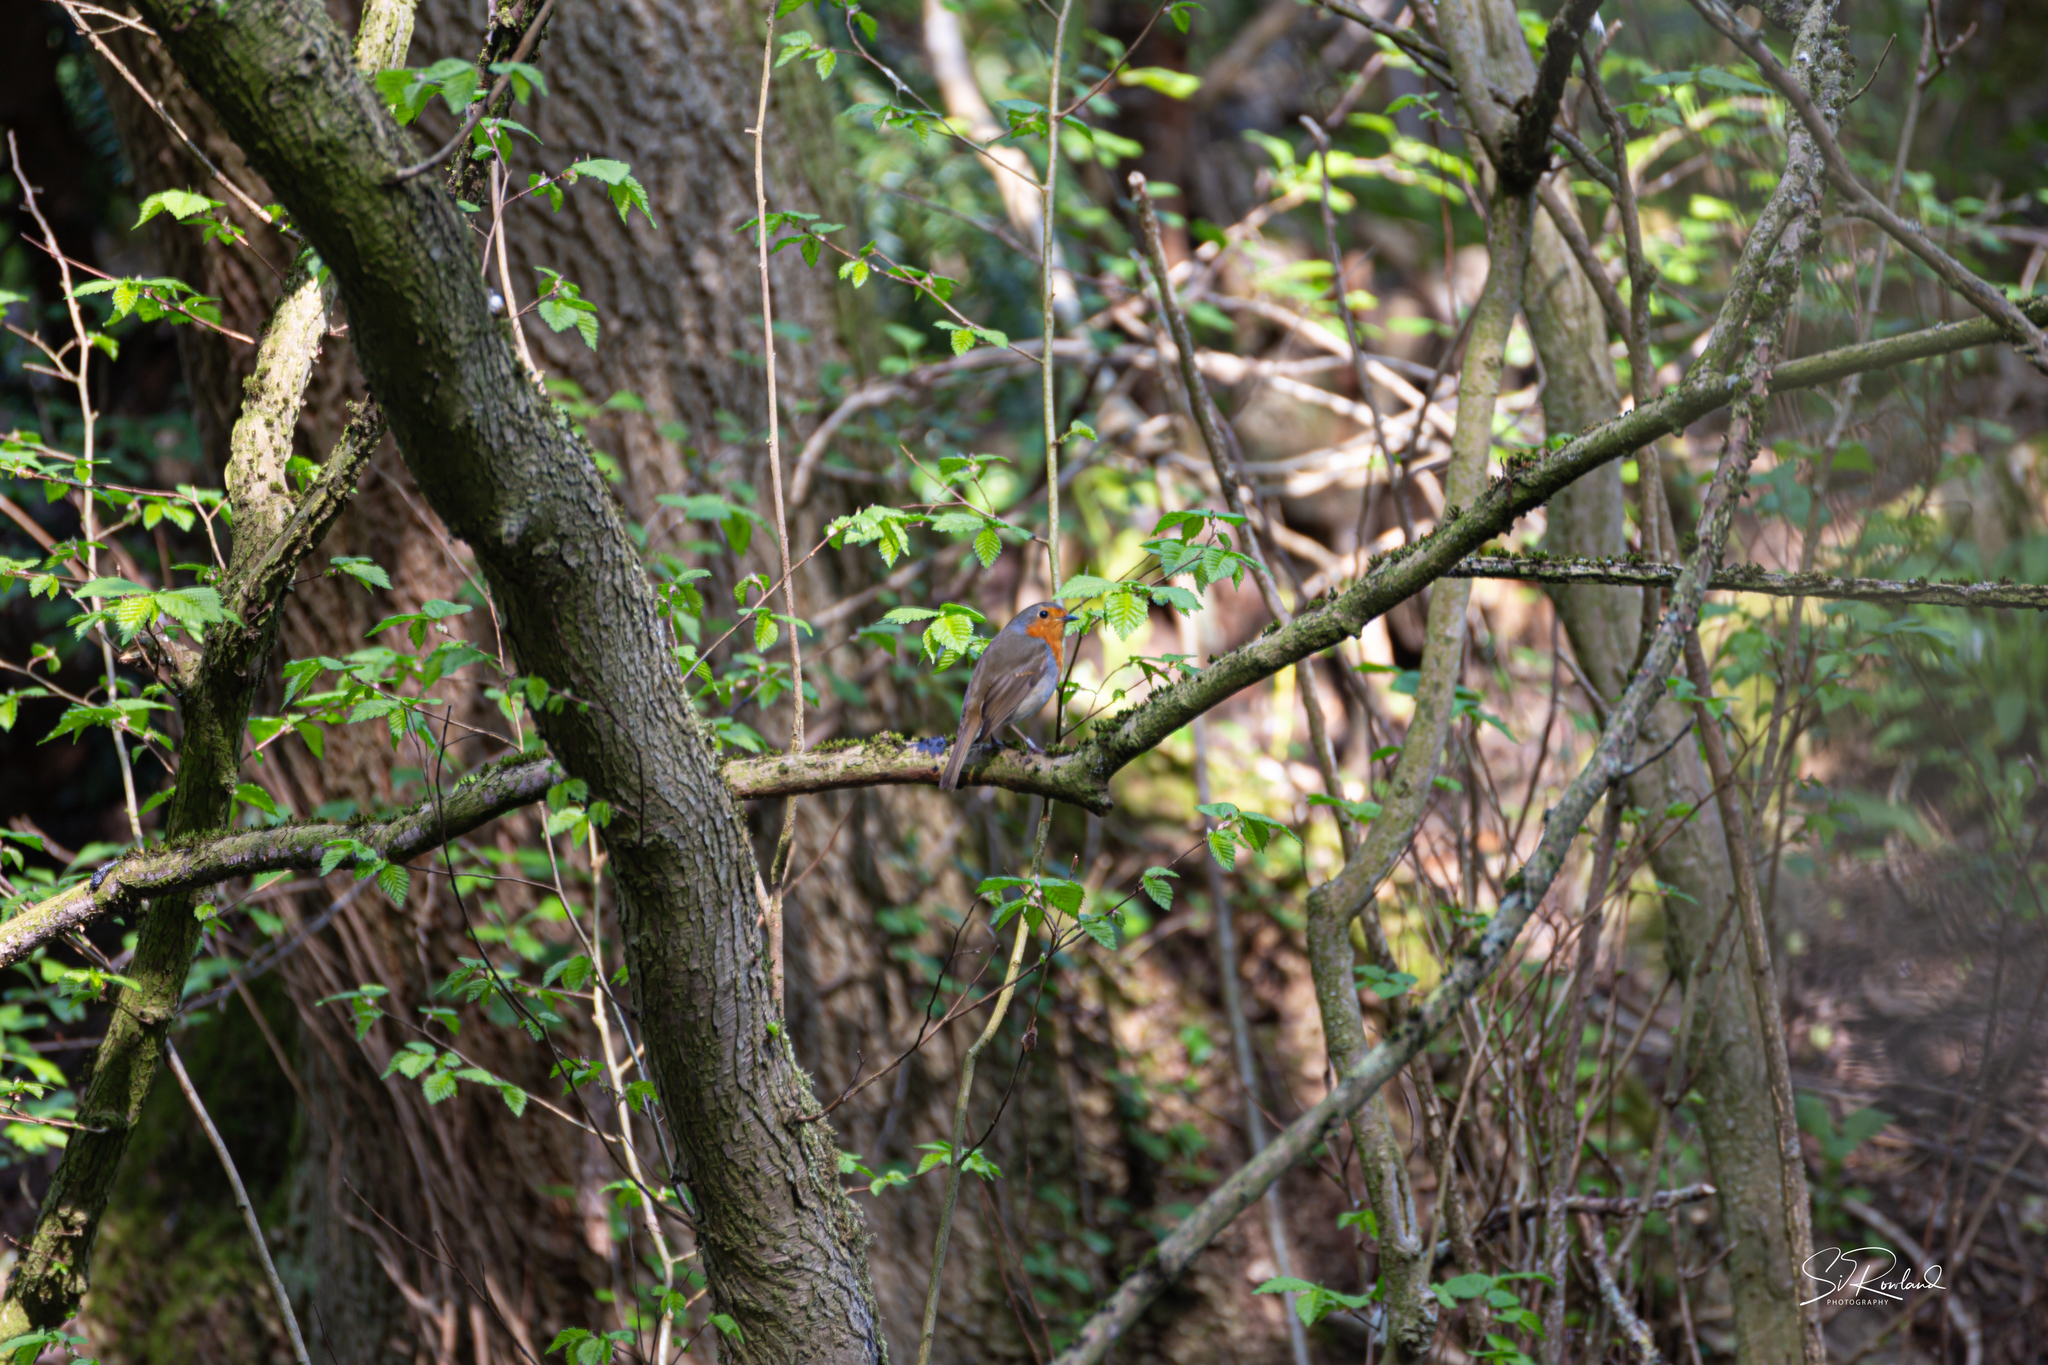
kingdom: Animalia
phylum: Chordata
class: Aves
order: Passeriformes
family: Muscicapidae
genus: Erithacus
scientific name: Erithacus rubecula
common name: European robin
